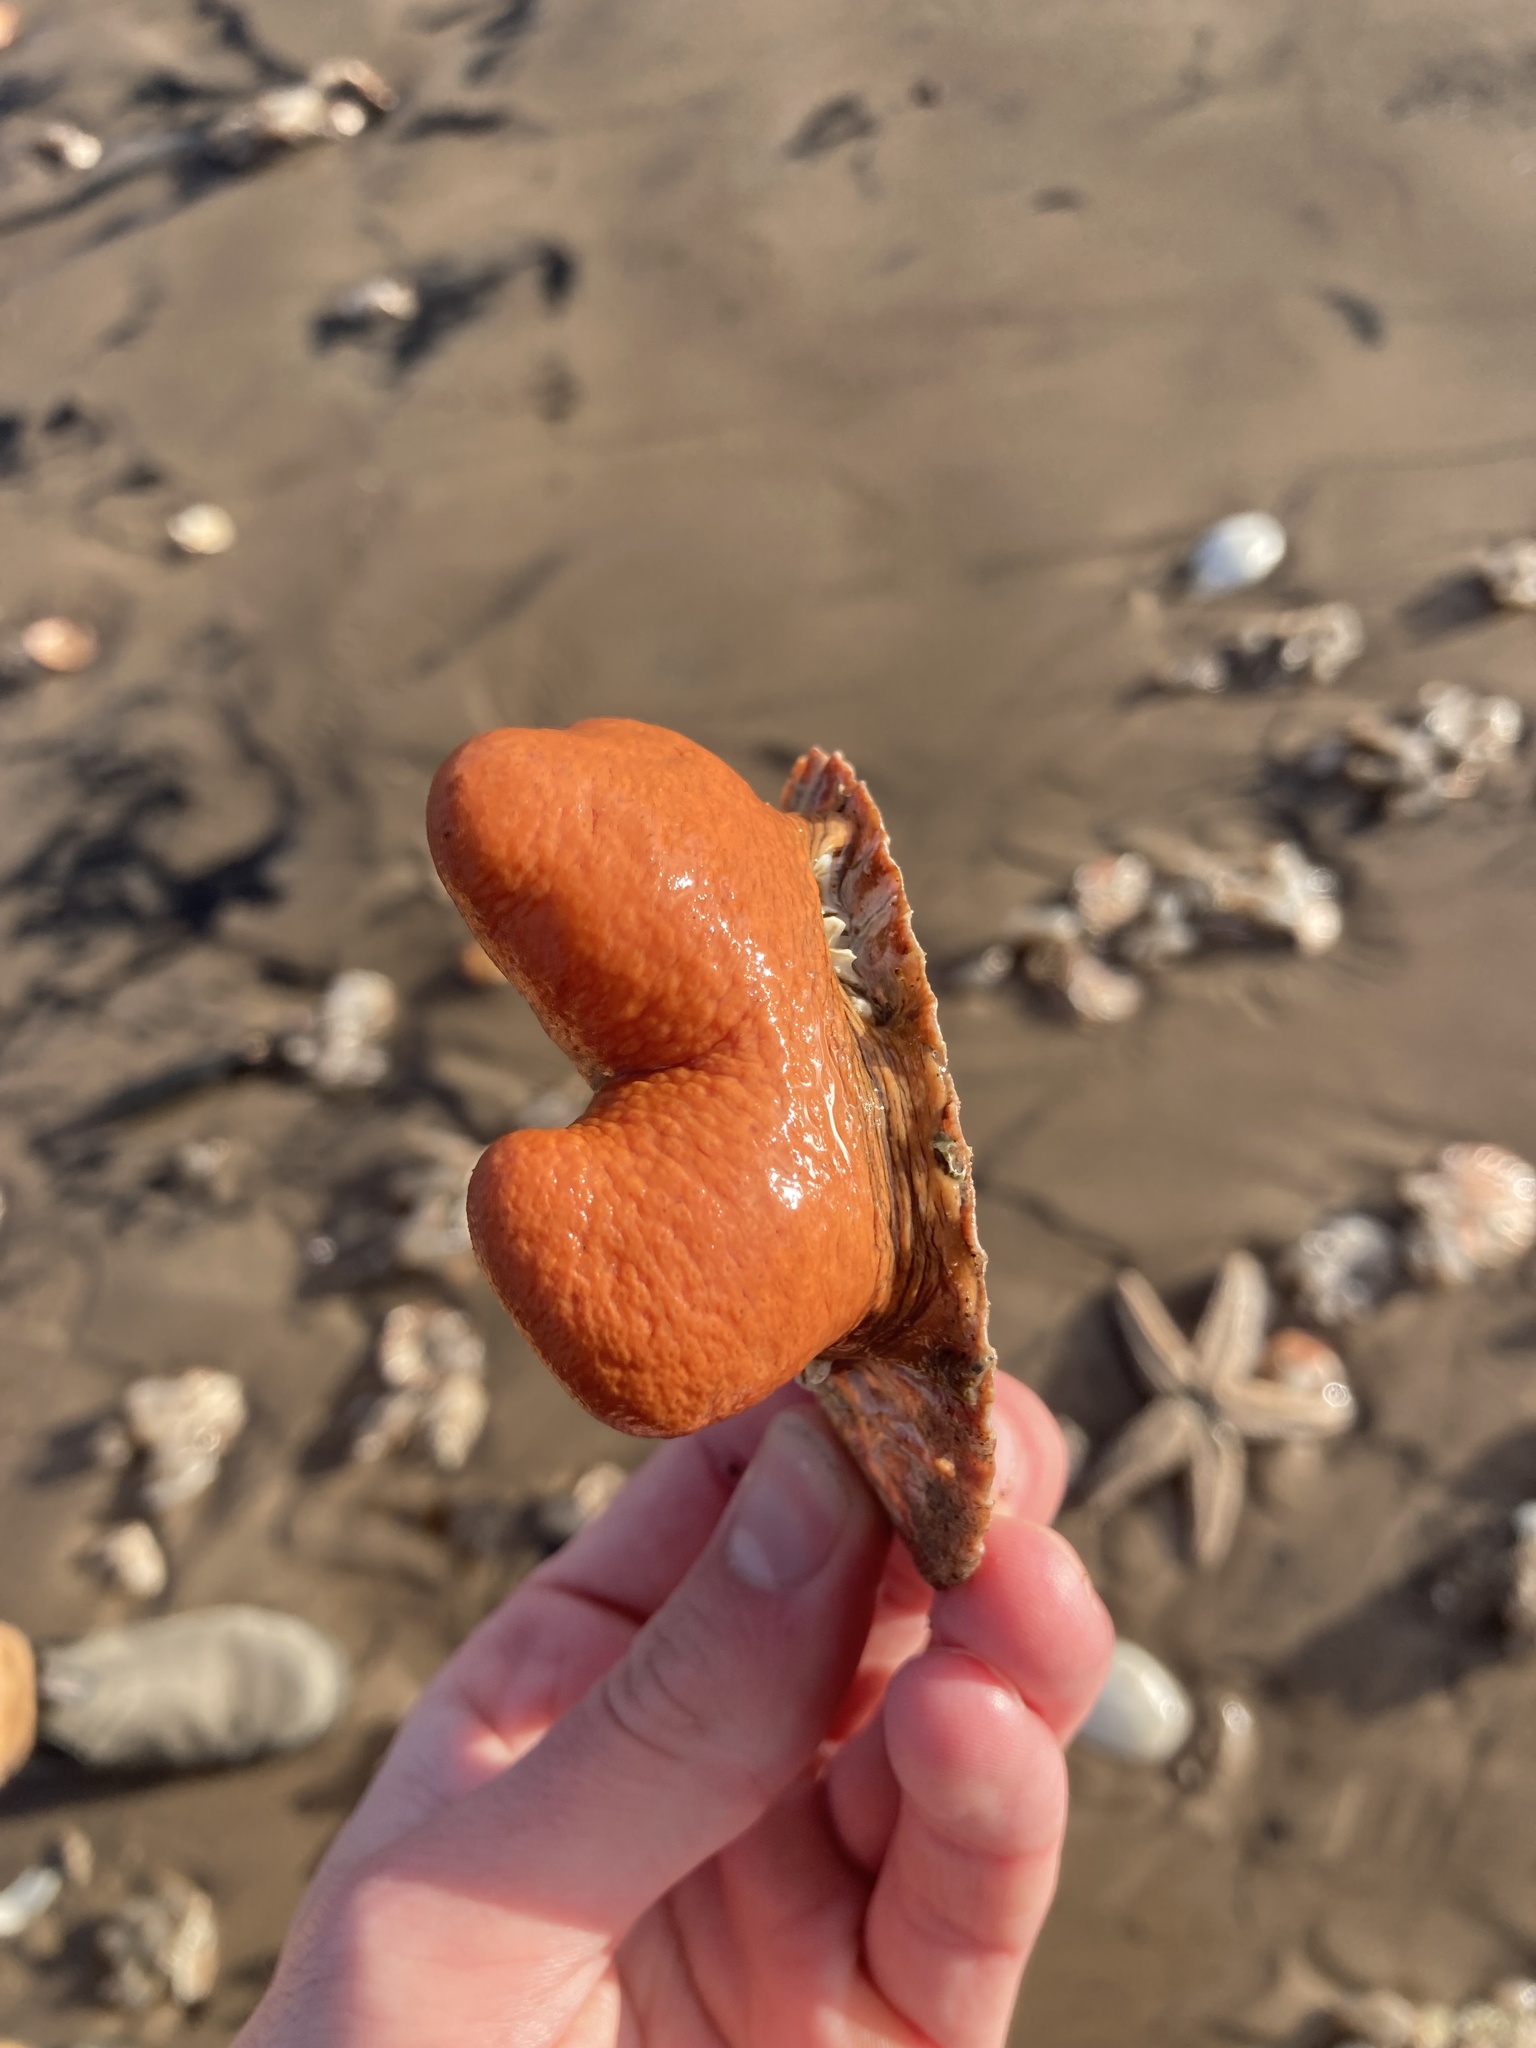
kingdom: Animalia
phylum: Cnidaria
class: Anthozoa
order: Malacalcyonacea
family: Alcyoniidae
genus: Alcyonium
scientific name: Alcyonium digitatum
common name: Dead man's fingers
